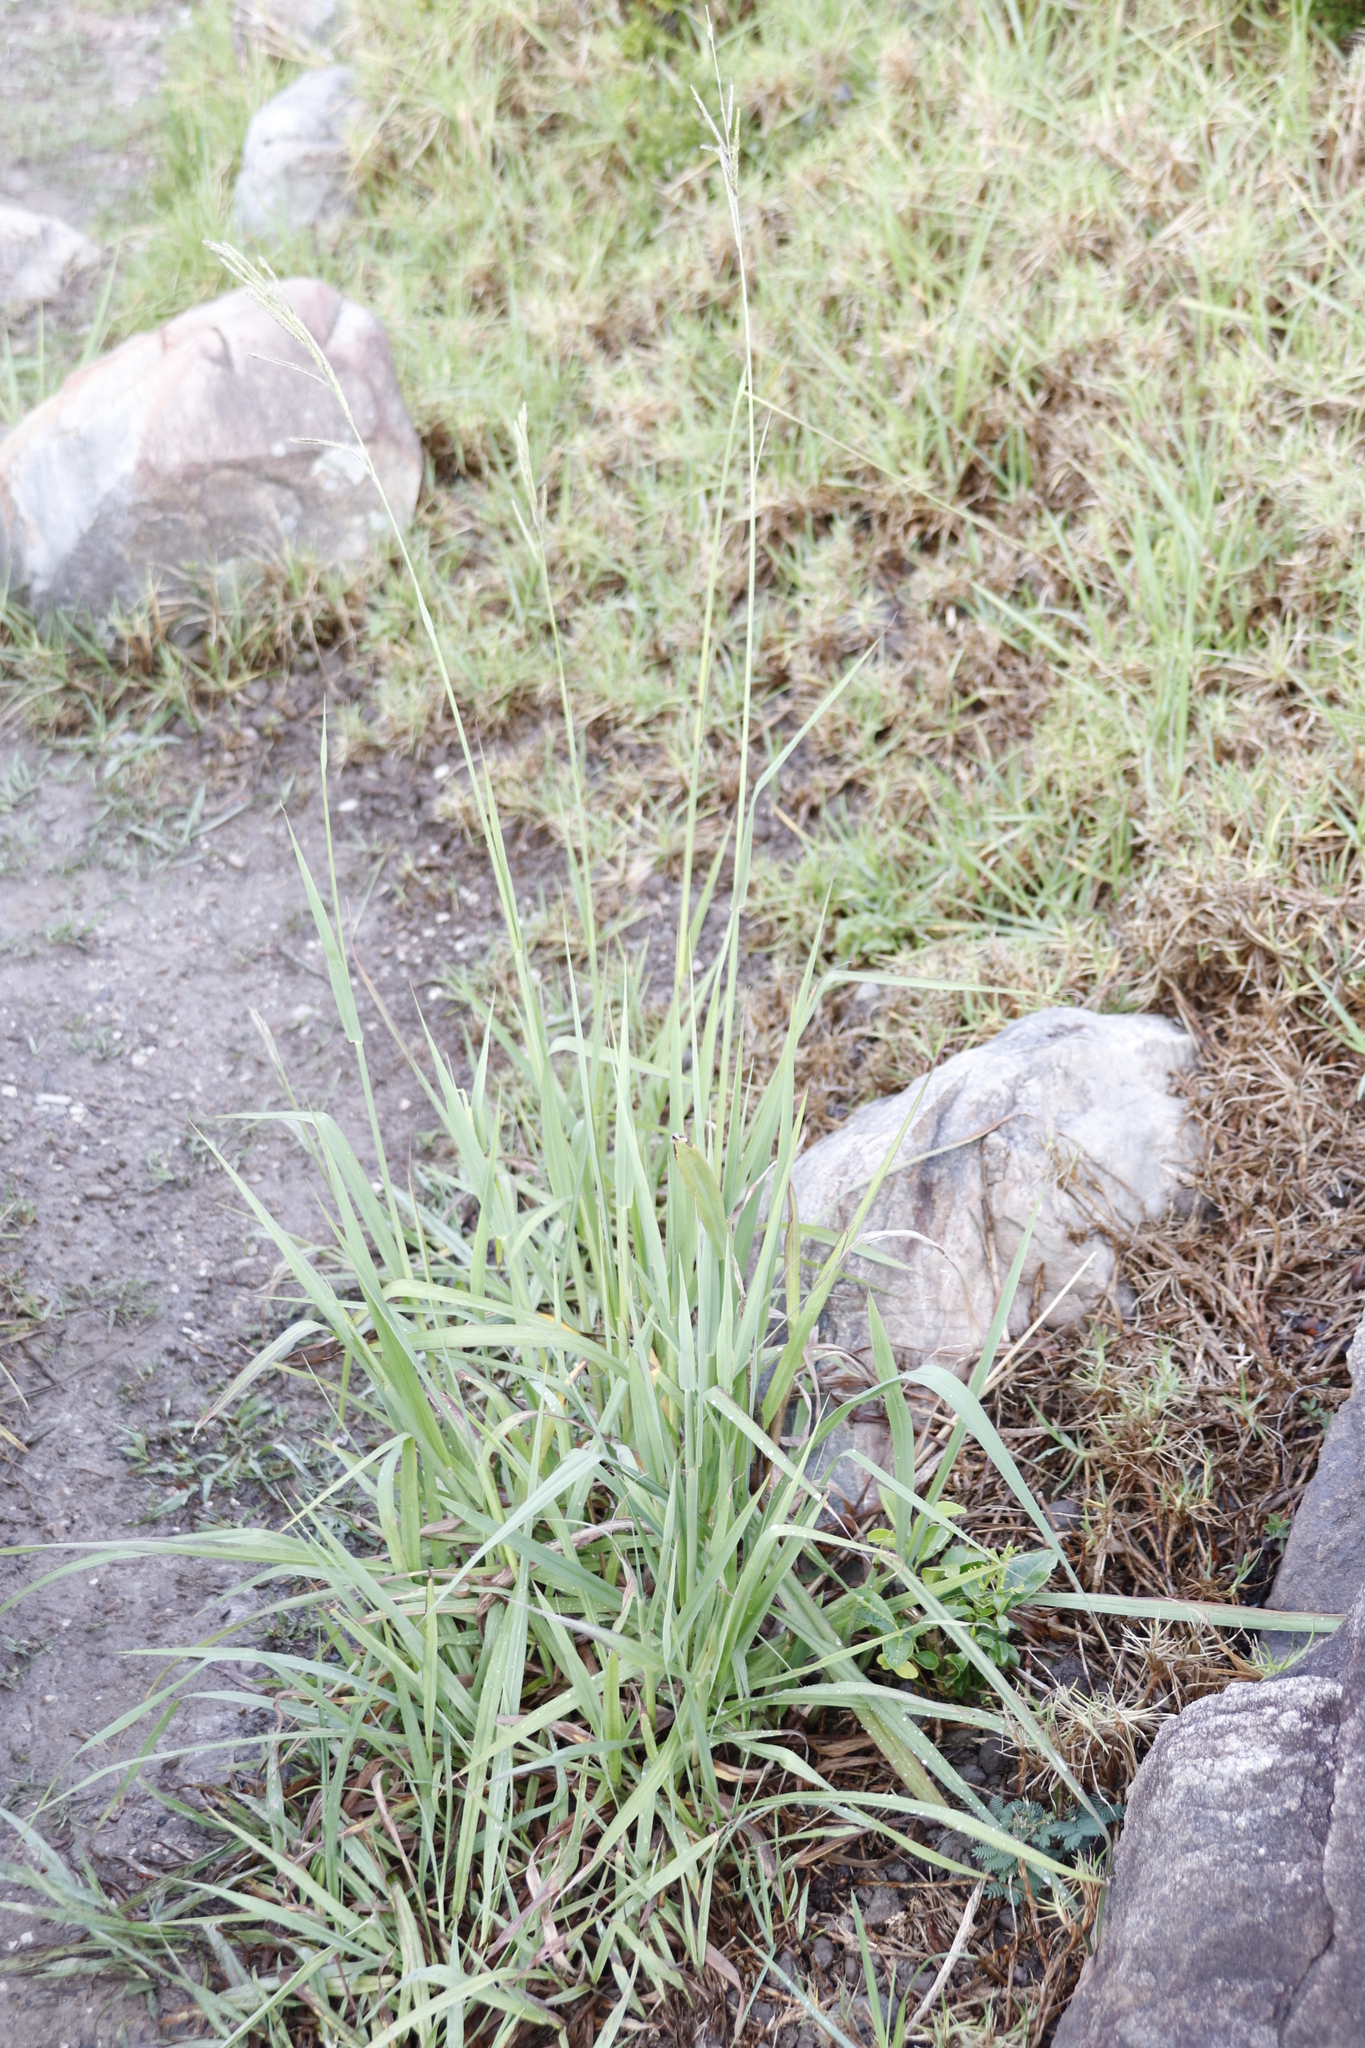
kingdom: Plantae
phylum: Tracheophyta
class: Liliopsida
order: Poales
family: Poaceae
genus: Paspalum
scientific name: Paspalum urvillei
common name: Vasey's grass
